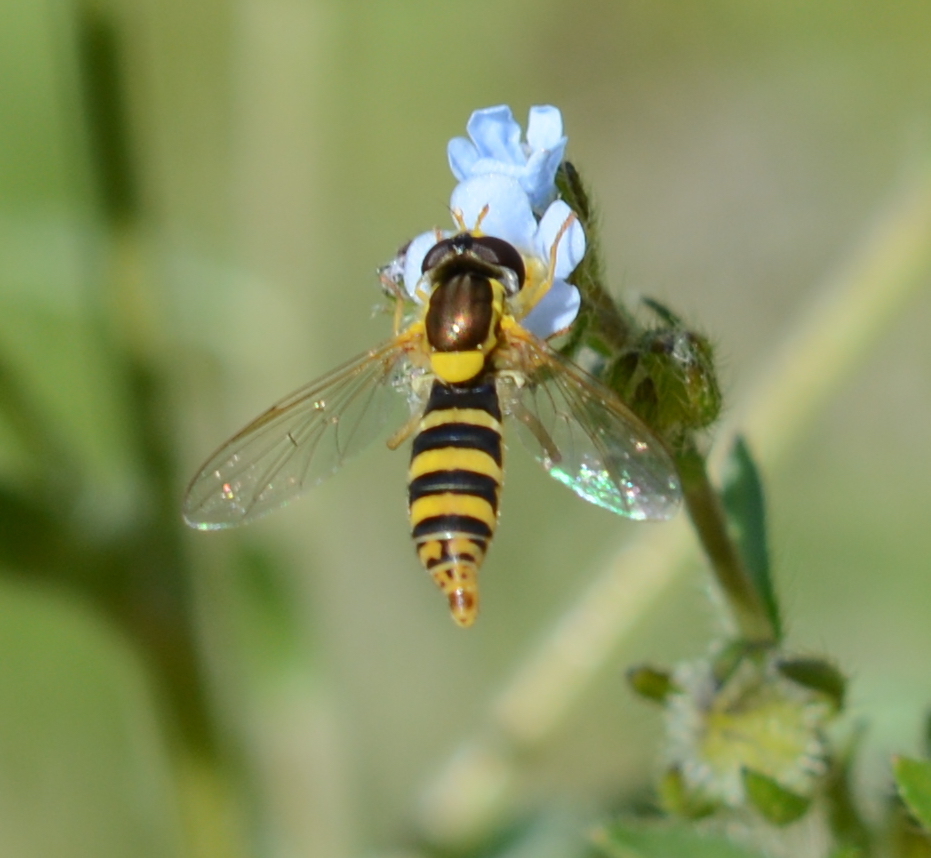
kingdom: Animalia
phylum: Arthropoda
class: Insecta
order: Diptera
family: Syrphidae
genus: Sphaerophoria
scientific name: Sphaerophoria
